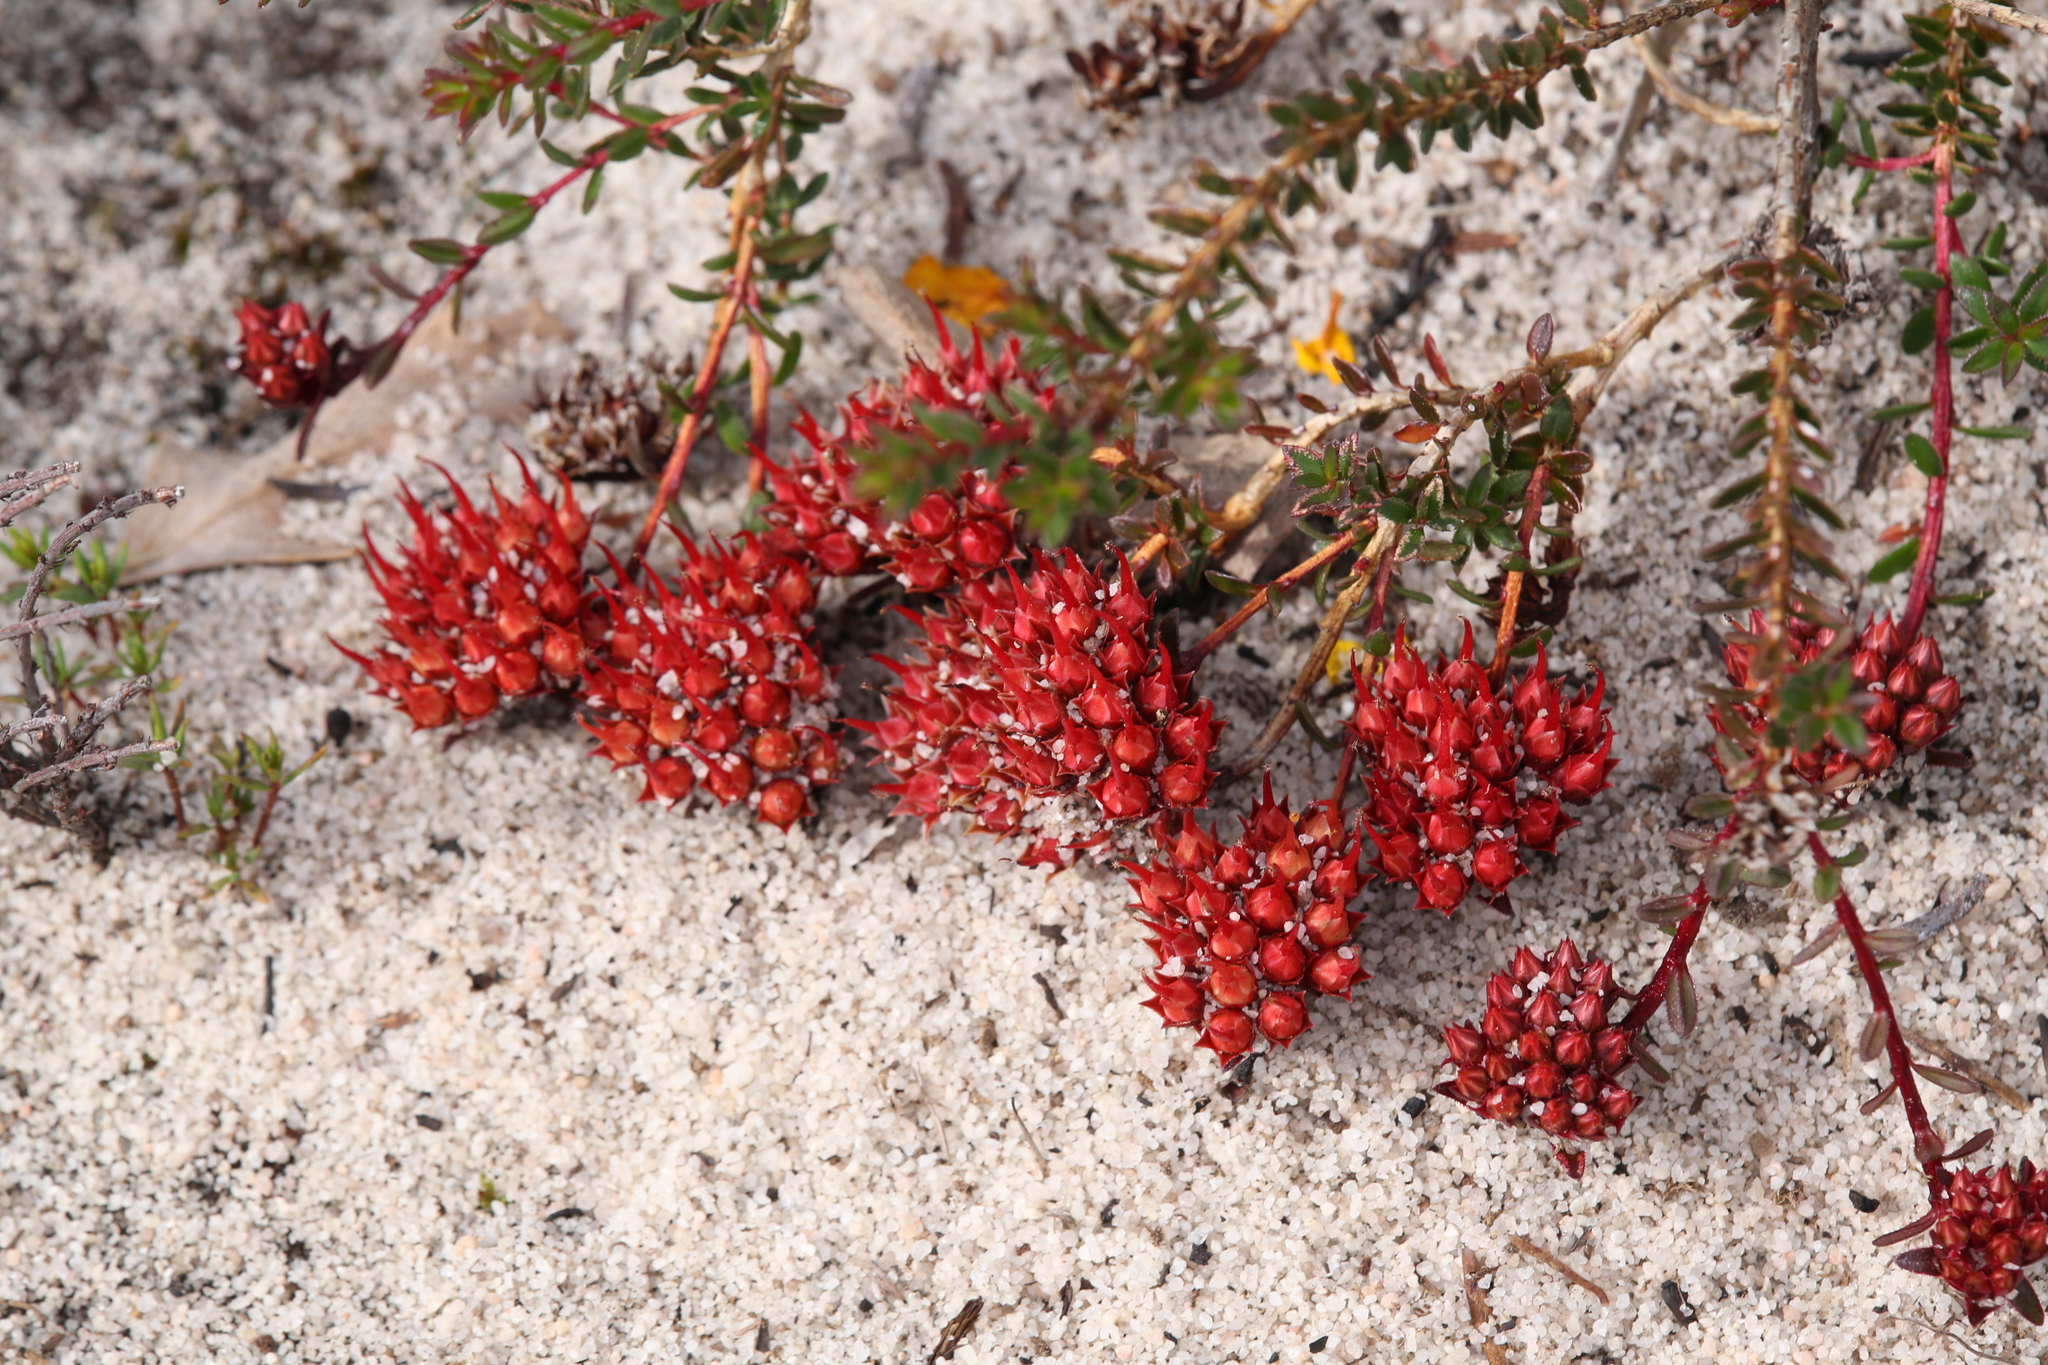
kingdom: Plantae
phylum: Tracheophyta
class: Magnoliopsida
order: Myrtales
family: Myrtaceae
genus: Darwinia
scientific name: Darwinia sanguinea
